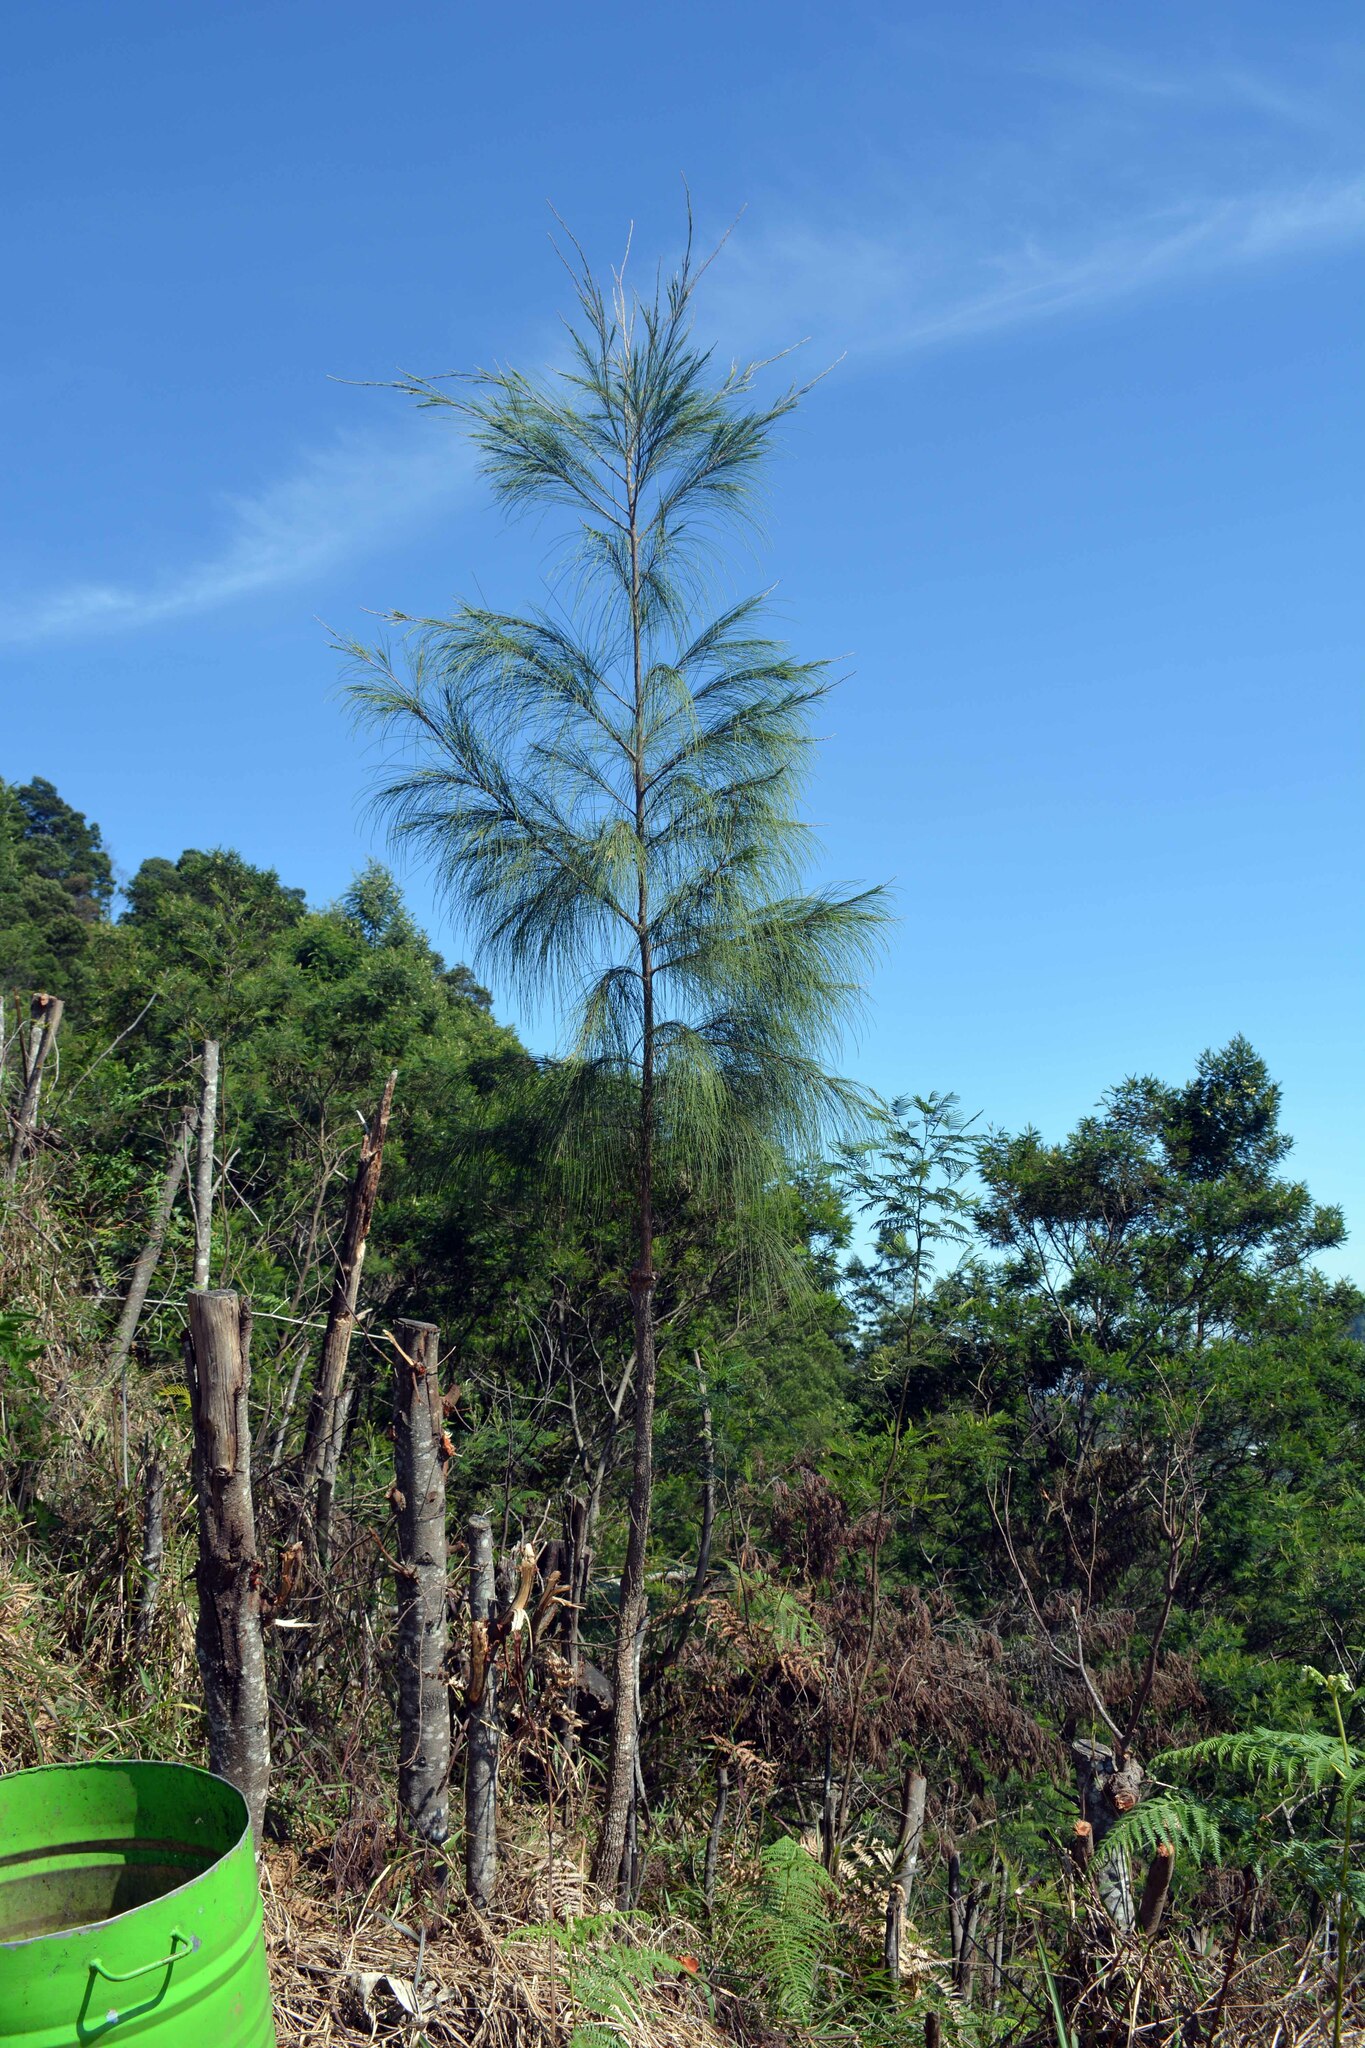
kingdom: Plantae
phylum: Tracheophyta
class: Magnoliopsida
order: Fagales
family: Casuarinaceae
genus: Casuarina
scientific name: Casuarina junghuhniana
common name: Mountain ru
